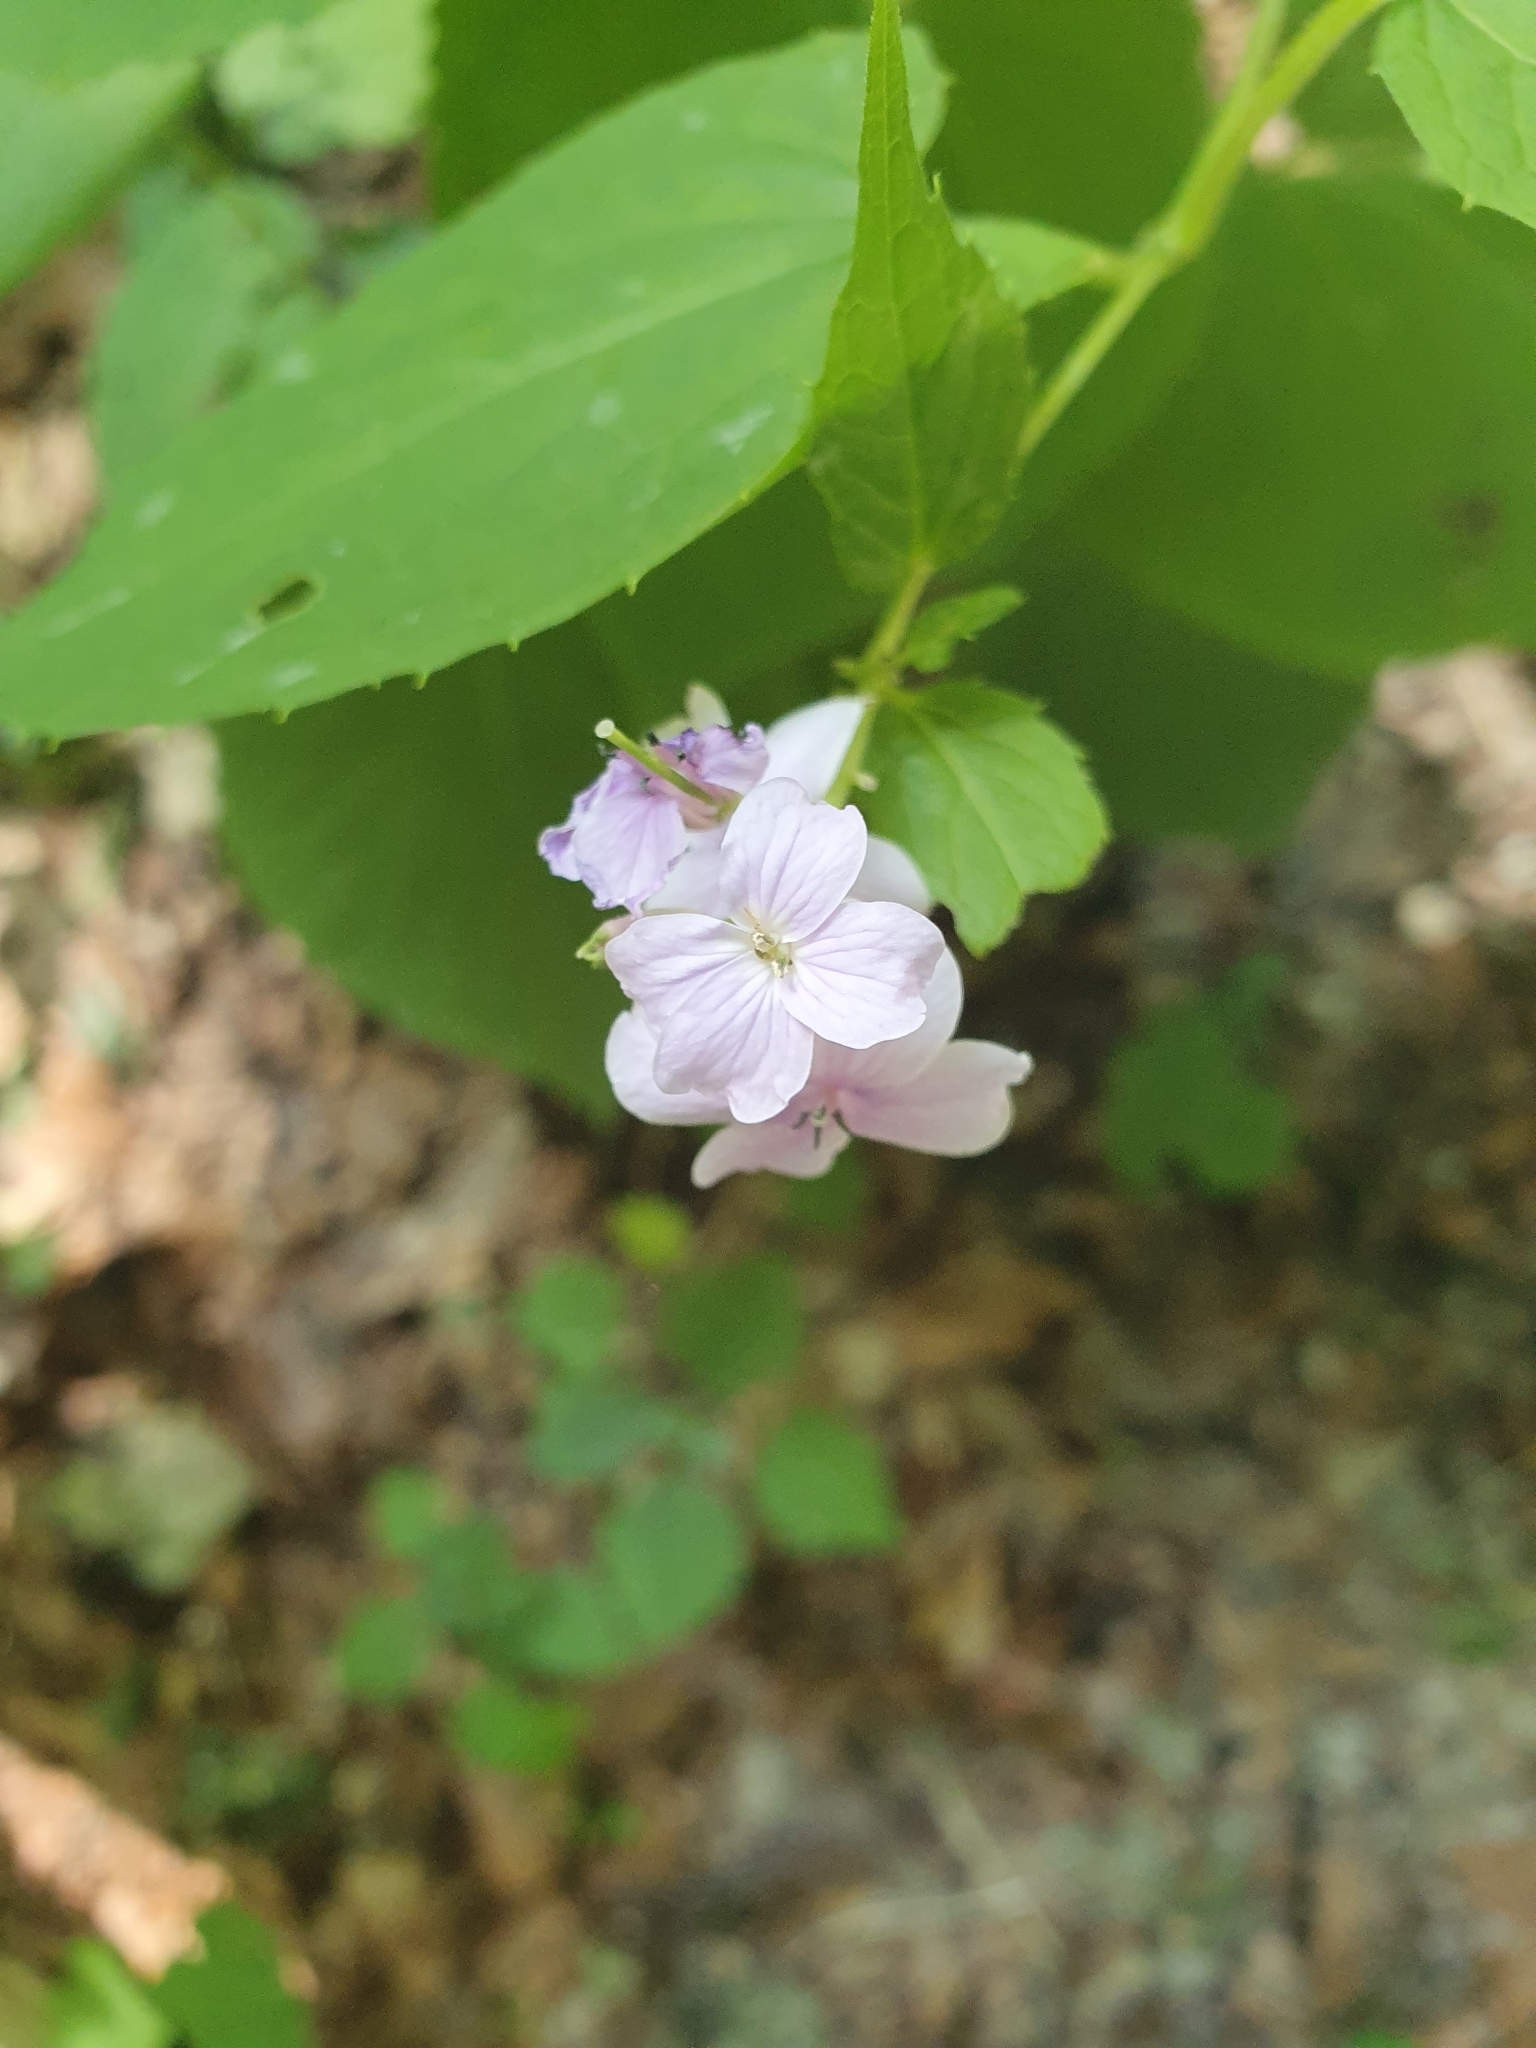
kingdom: Plantae
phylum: Tracheophyta
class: Magnoliopsida
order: Brassicales
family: Brassicaceae
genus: Lunaria
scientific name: Lunaria rediviva
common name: Perennial honesty
